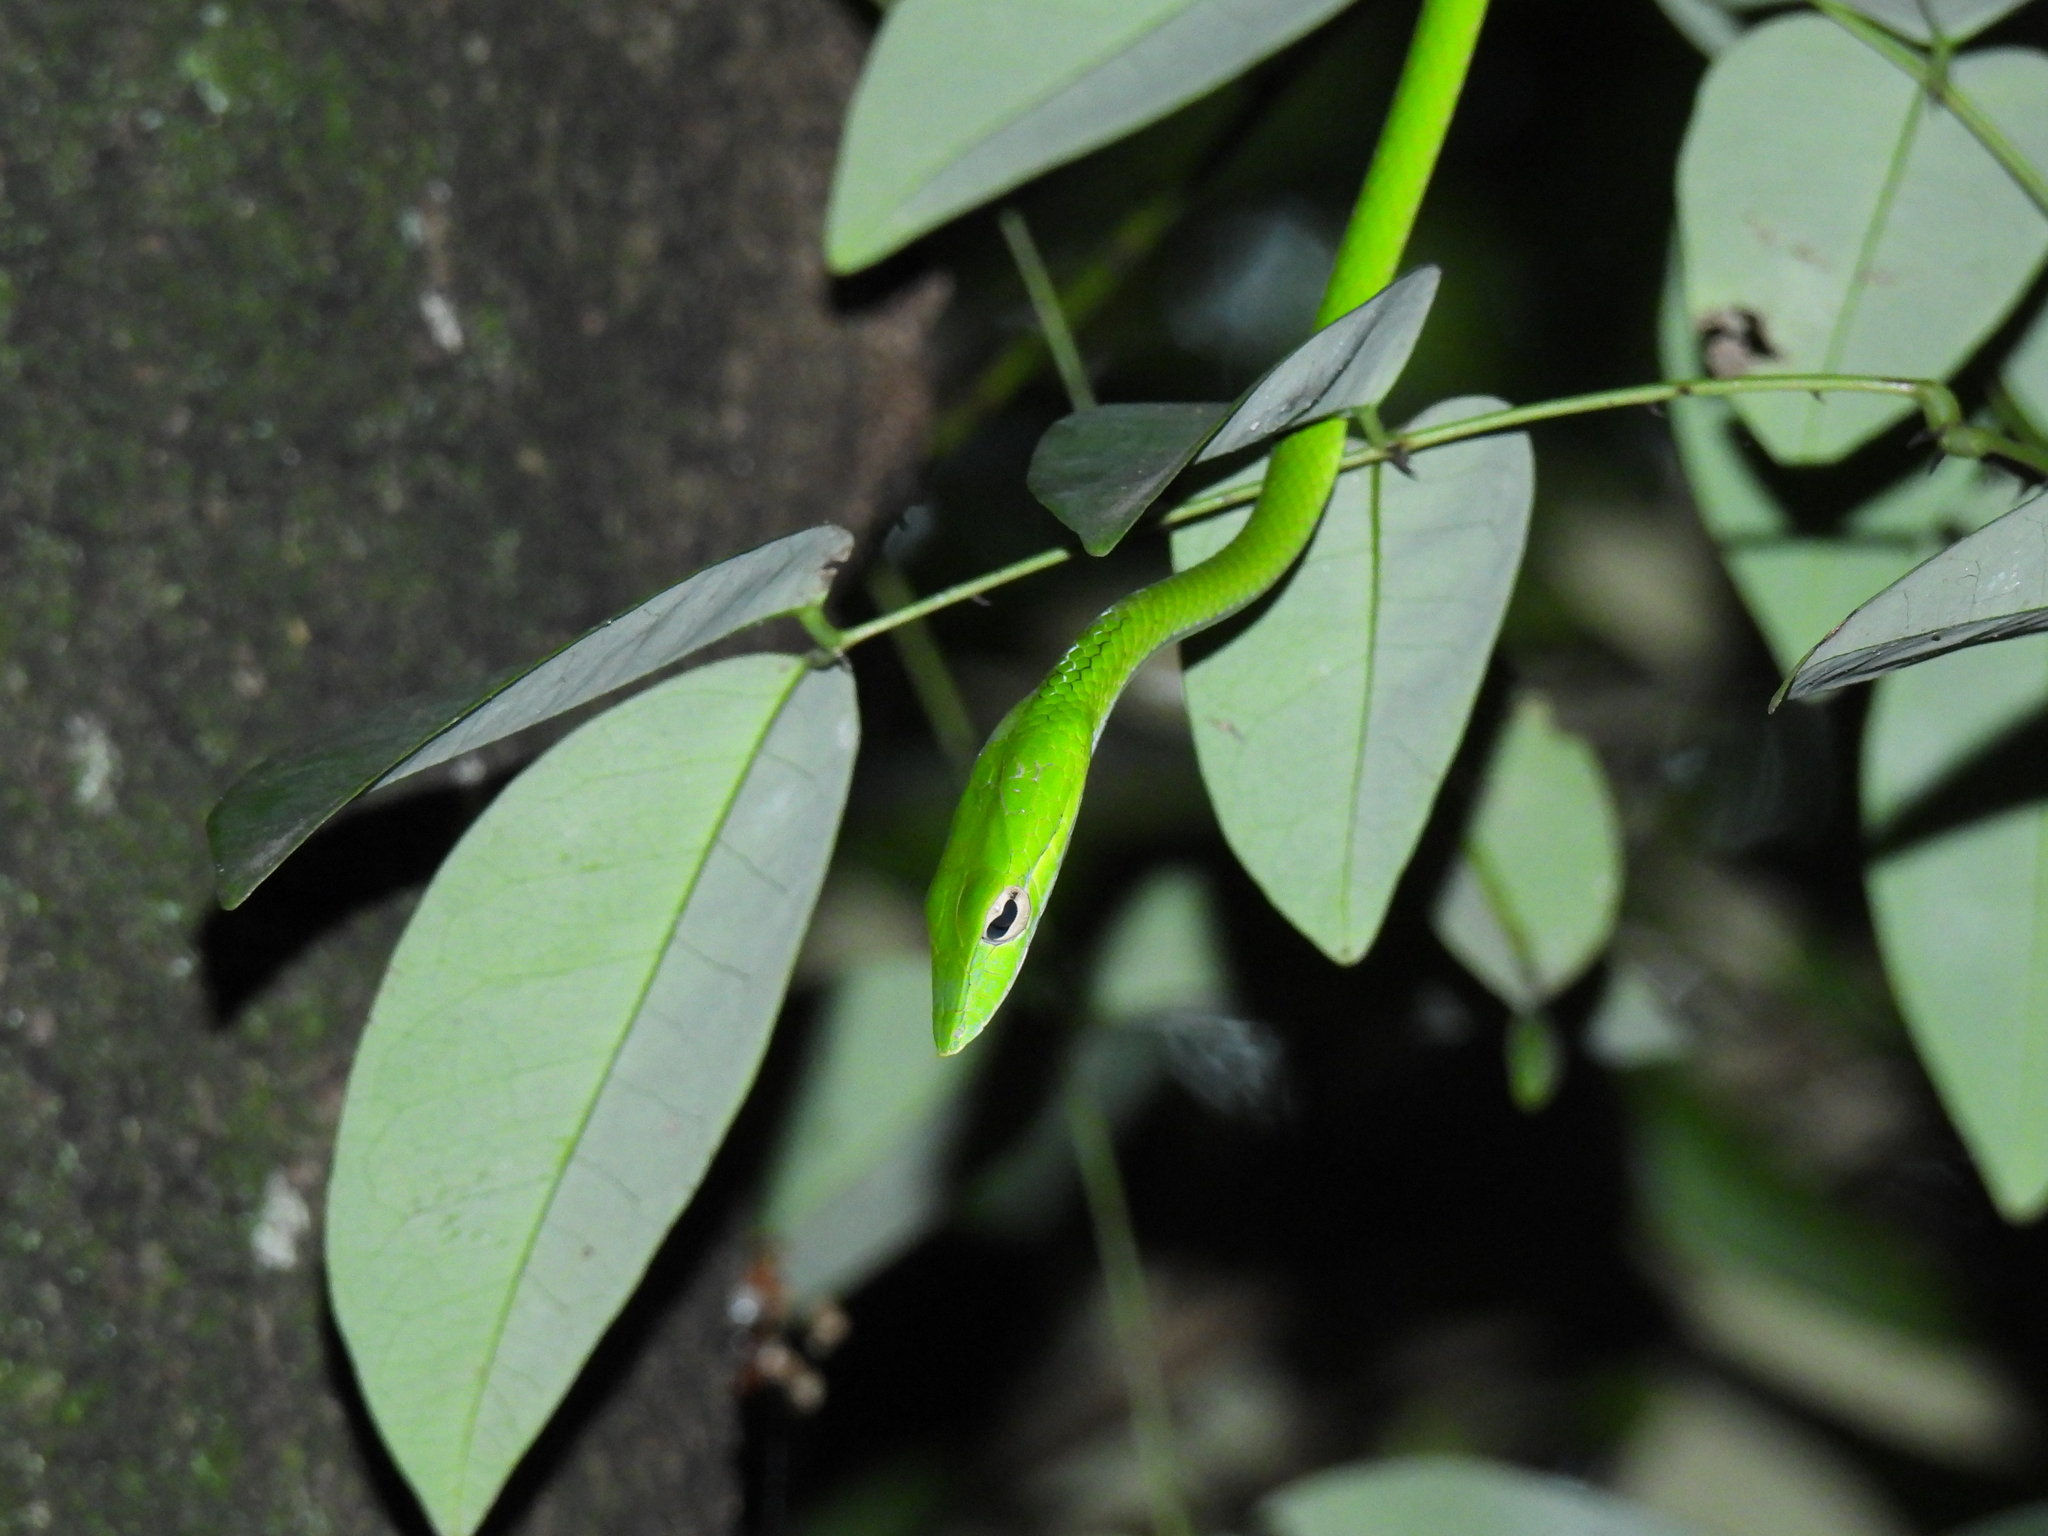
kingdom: Animalia
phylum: Chordata
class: Squamata
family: Colubridae
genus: Ahaetulla
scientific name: Ahaetulla prasina
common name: Oriental whip snake
